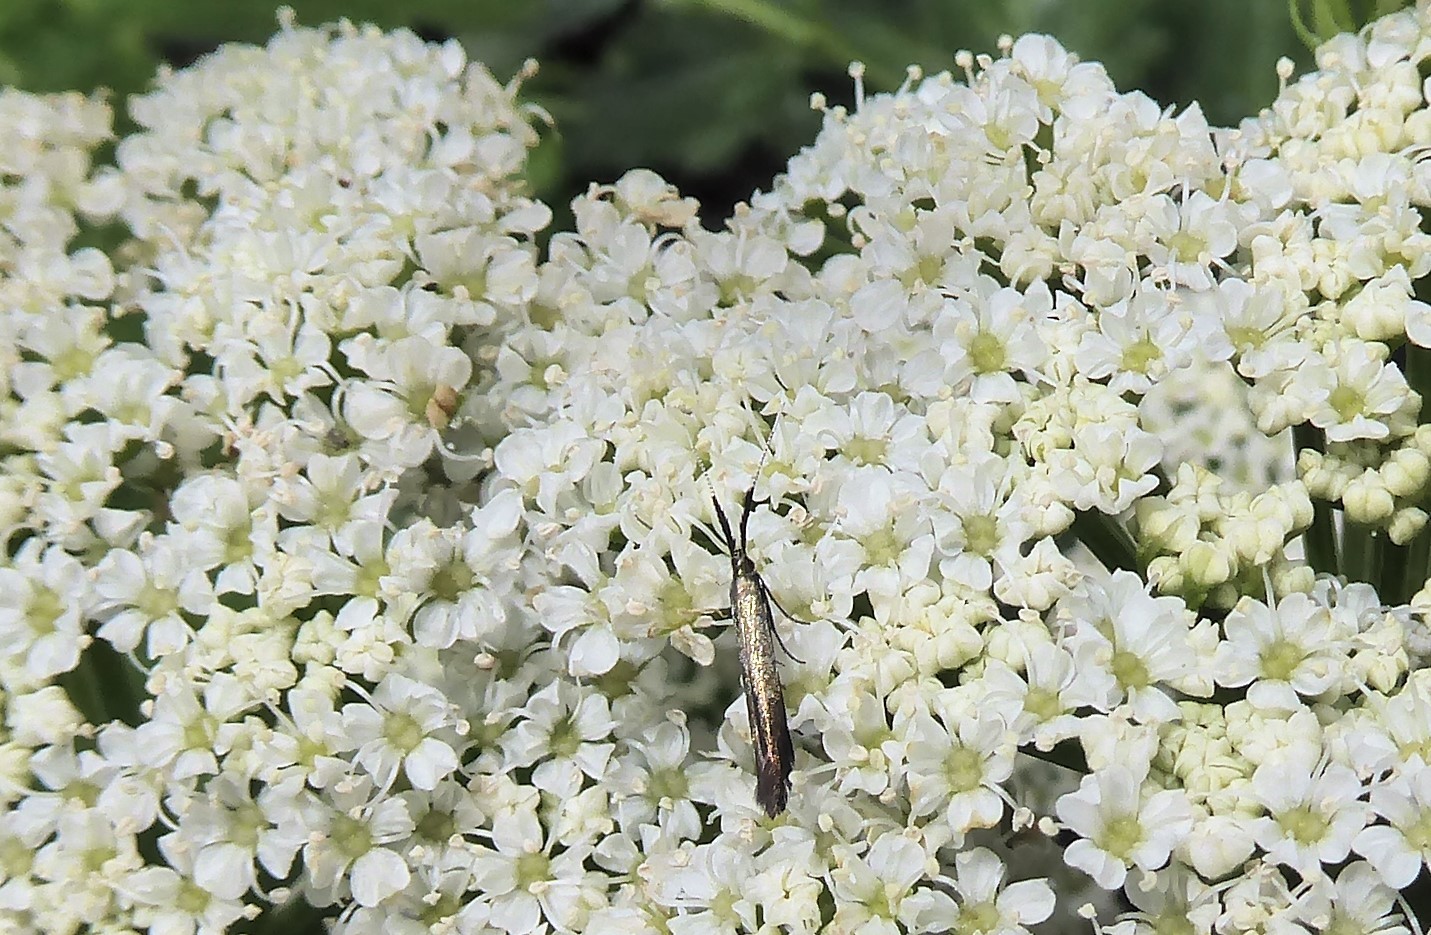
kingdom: Animalia
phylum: Arthropoda
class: Insecta
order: Lepidoptera
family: Coleophoridae
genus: Coleophora
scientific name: Coleophora mayrella
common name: Meadow case-bearer
